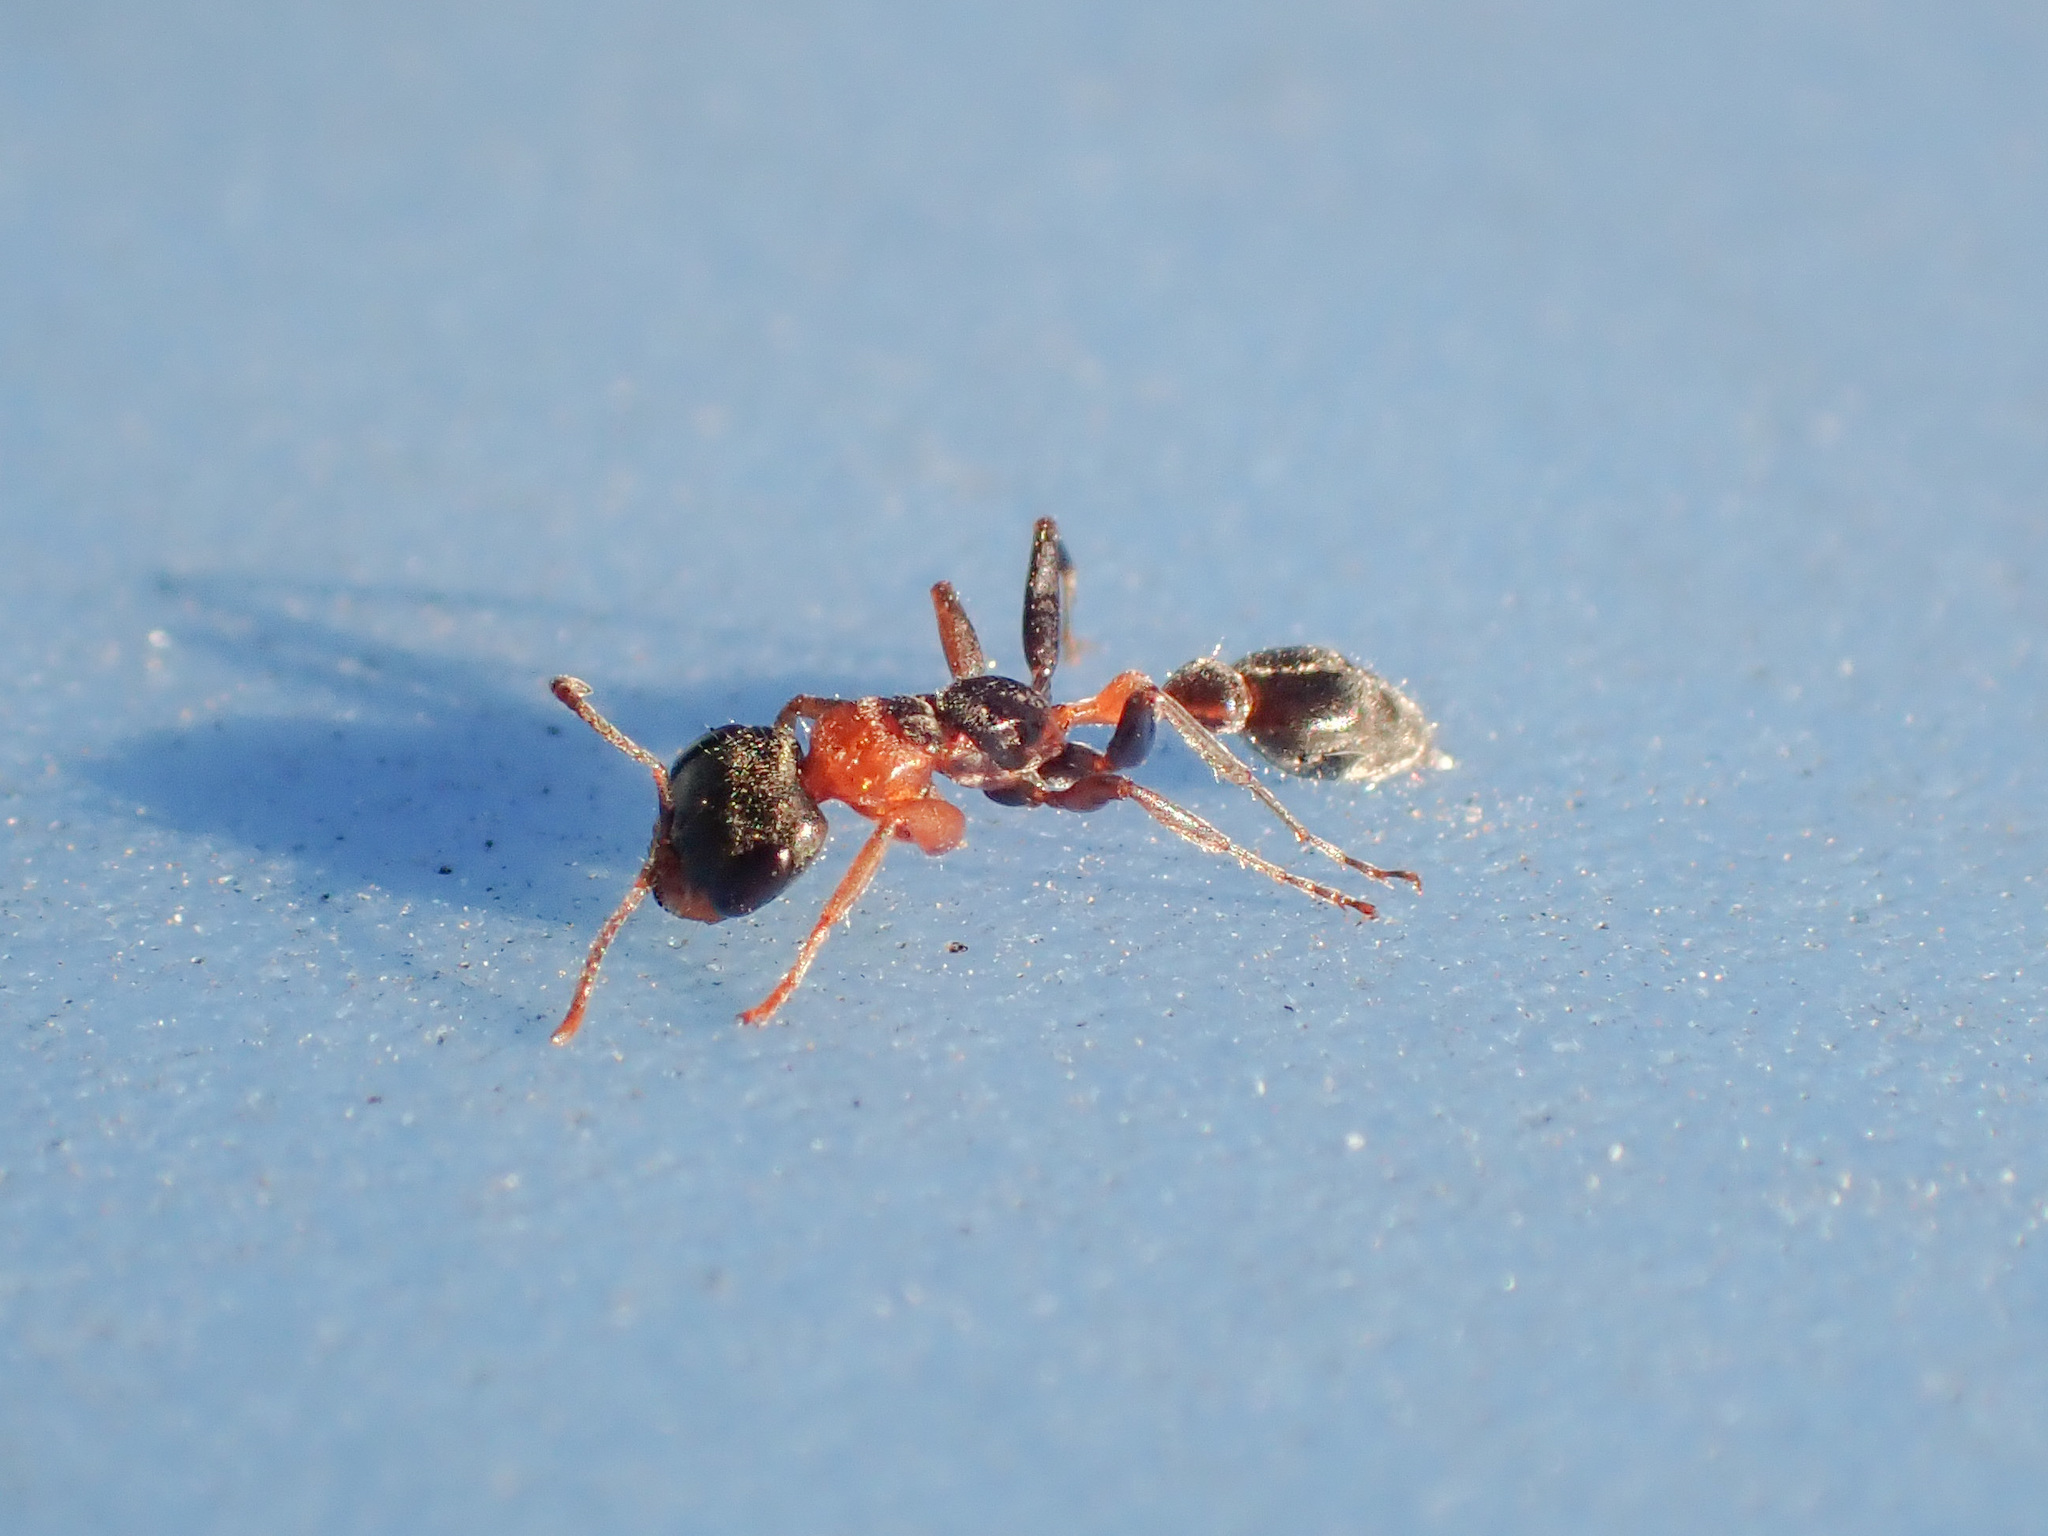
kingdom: Animalia
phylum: Arthropoda
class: Insecta
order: Hymenoptera
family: Formicidae
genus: Pseudomyrmex
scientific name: Pseudomyrmex gracilis
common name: Graceful twig ant
